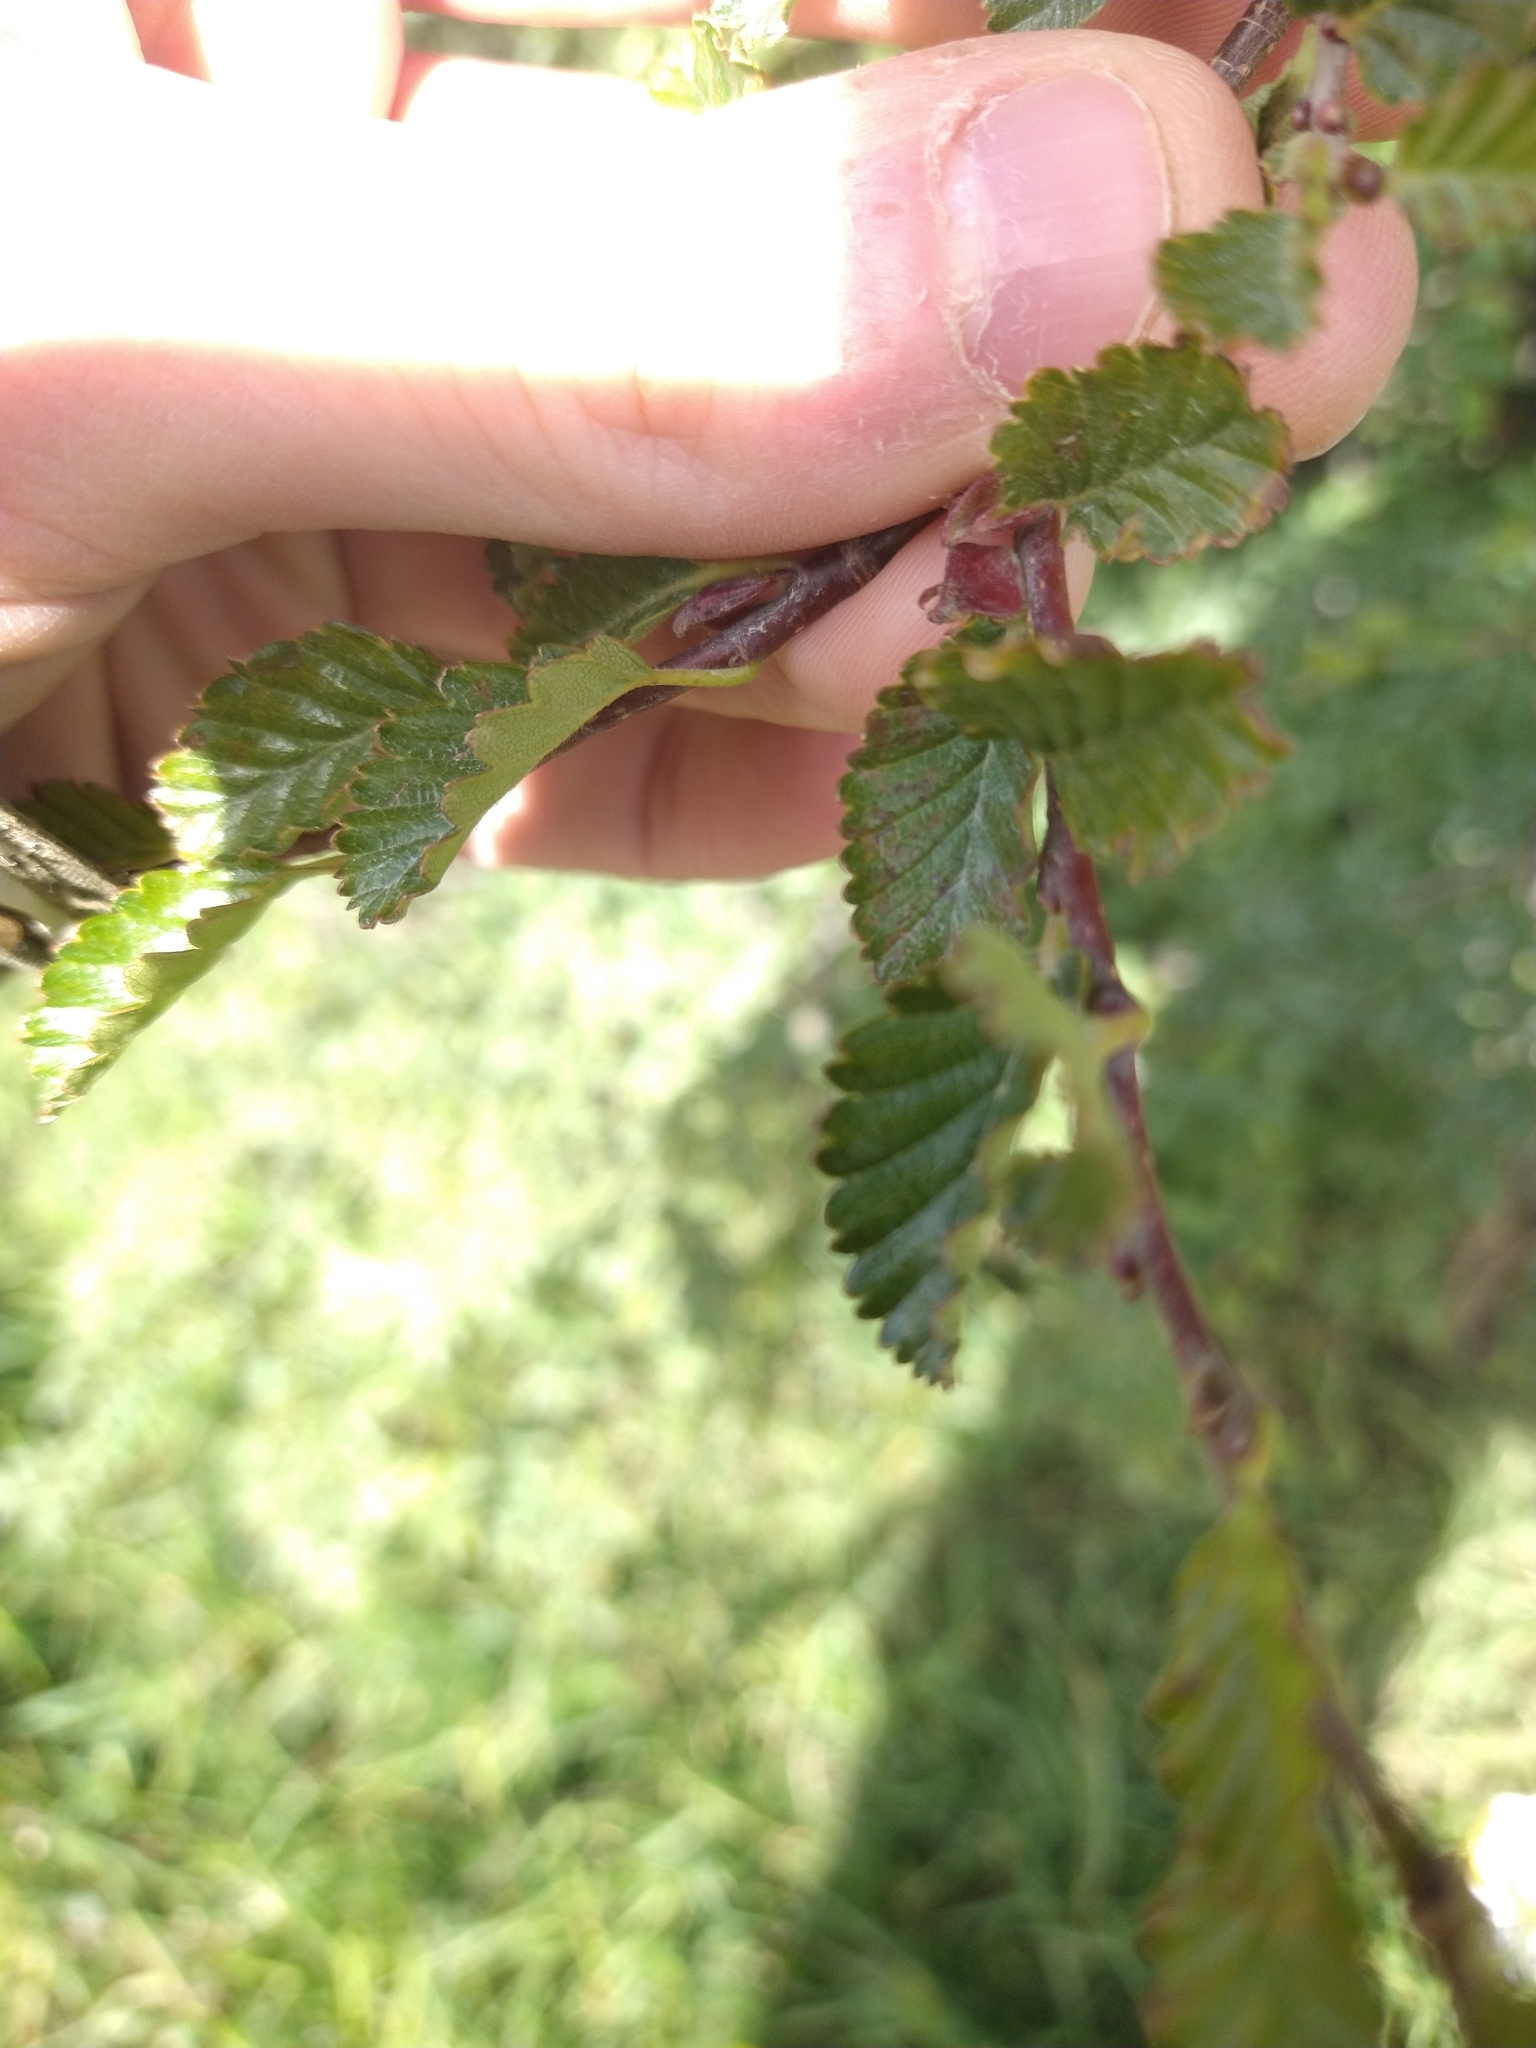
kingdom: Plantae
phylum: Tracheophyta
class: Magnoliopsida
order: Fagales
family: Nothofagaceae
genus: Nothofagus
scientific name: Nothofagus pumilio
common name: Lenga beech
